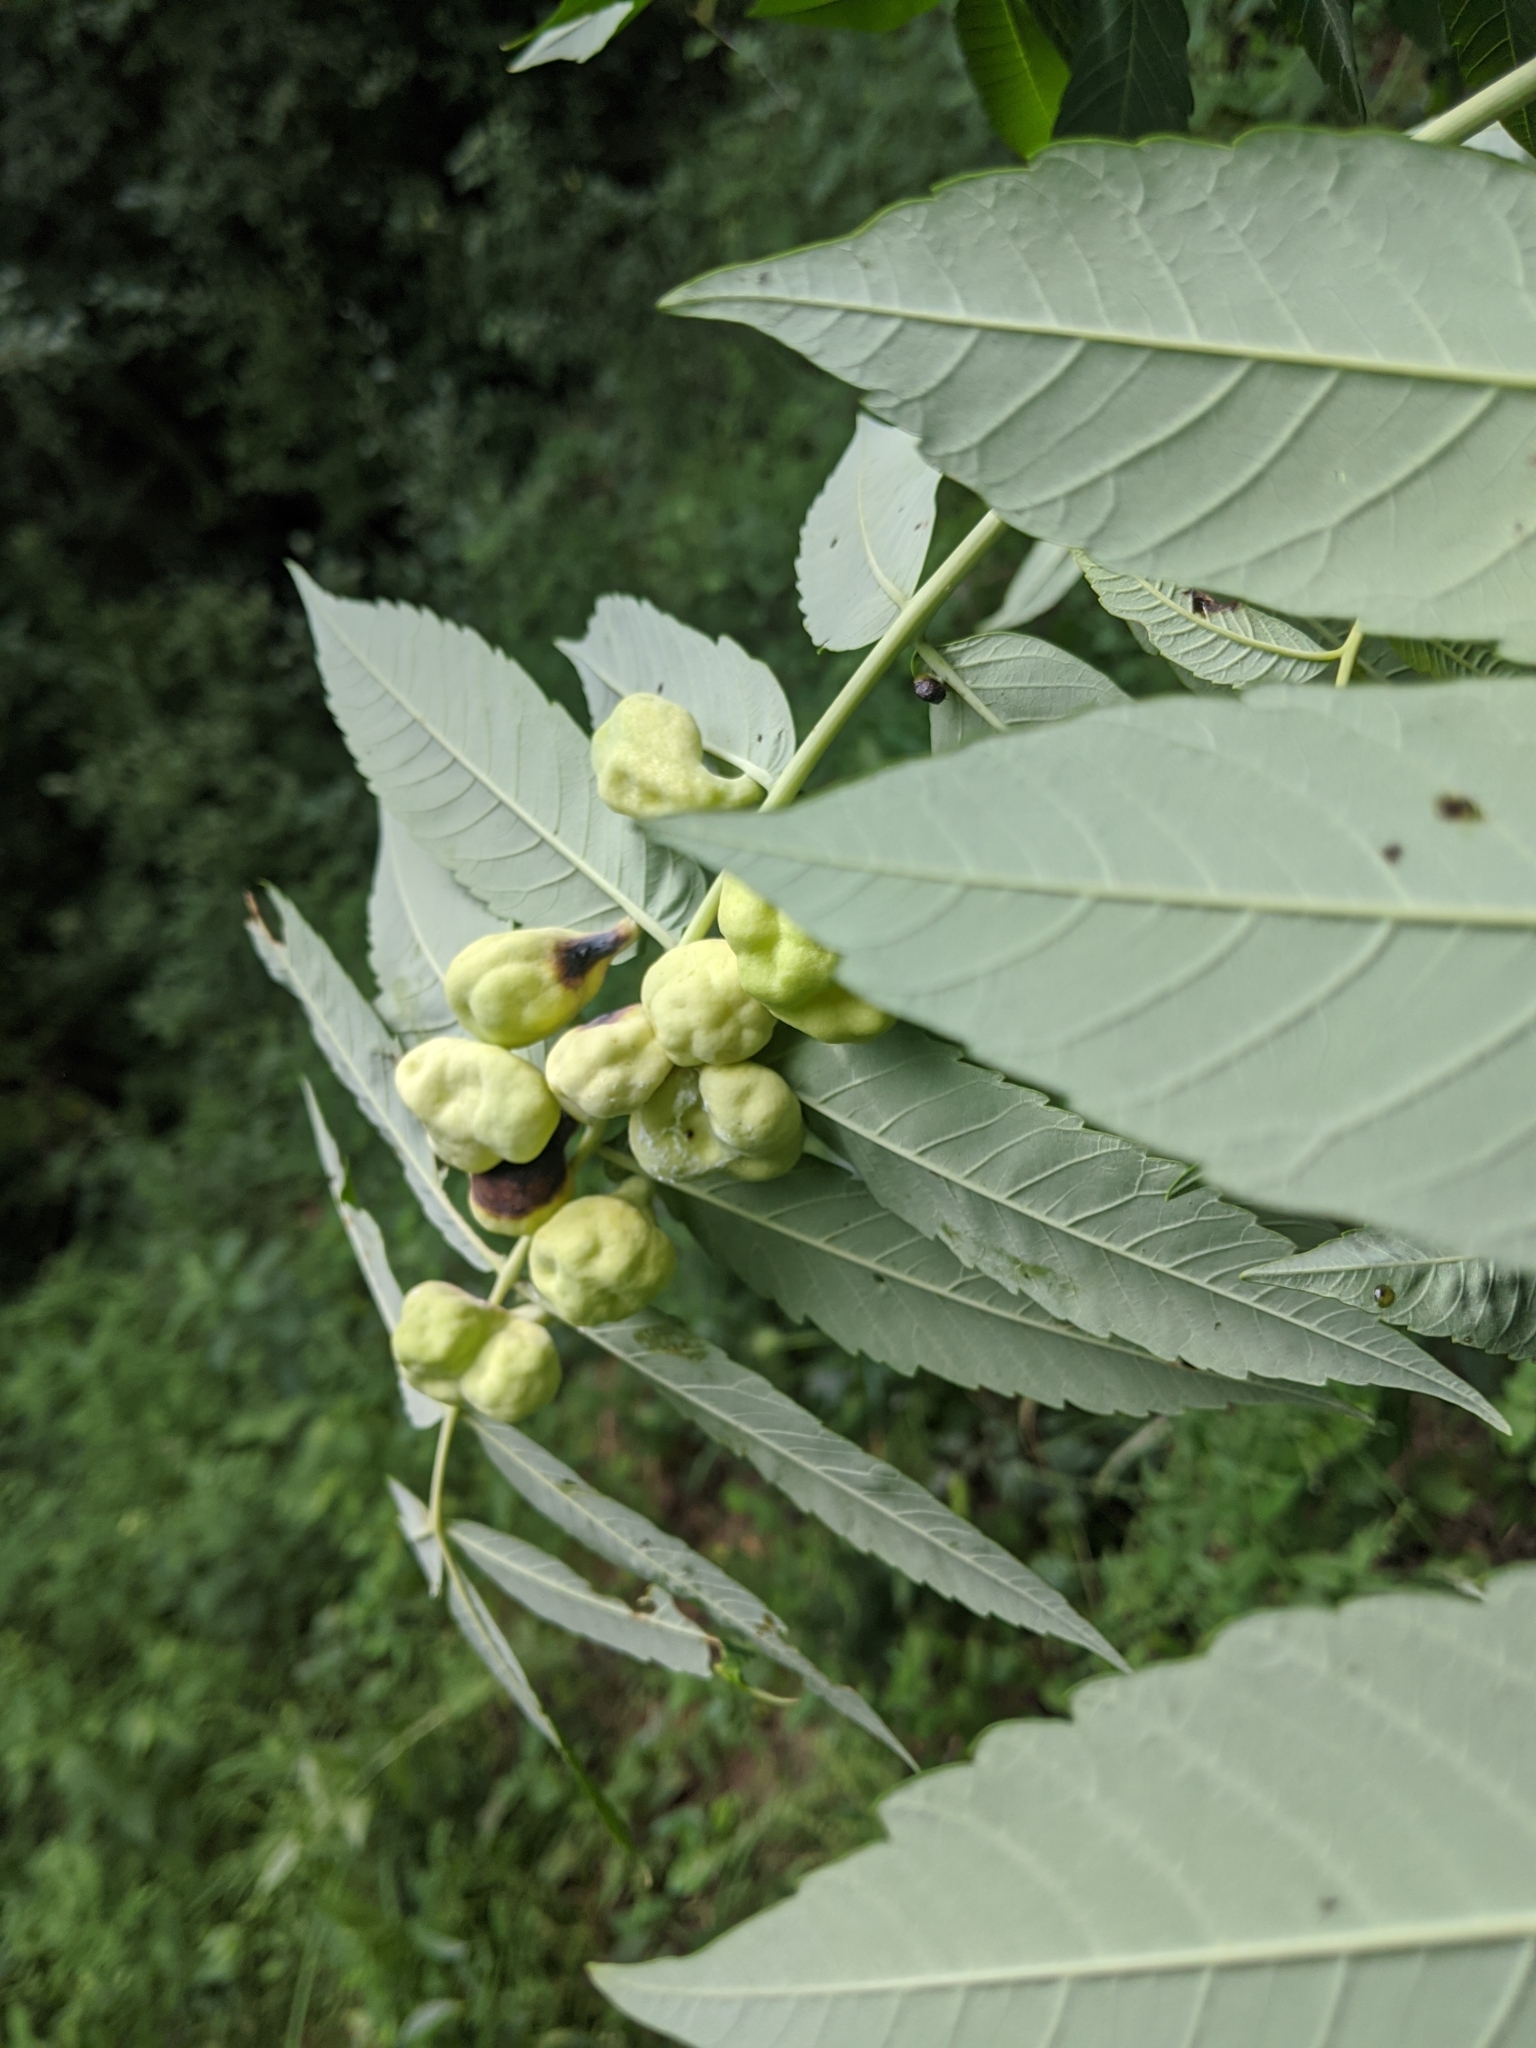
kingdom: Animalia
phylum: Arthropoda
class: Insecta
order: Hemiptera
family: Aphididae
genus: Melaphis
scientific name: Melaphis rhois
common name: Sumac gall aphid
